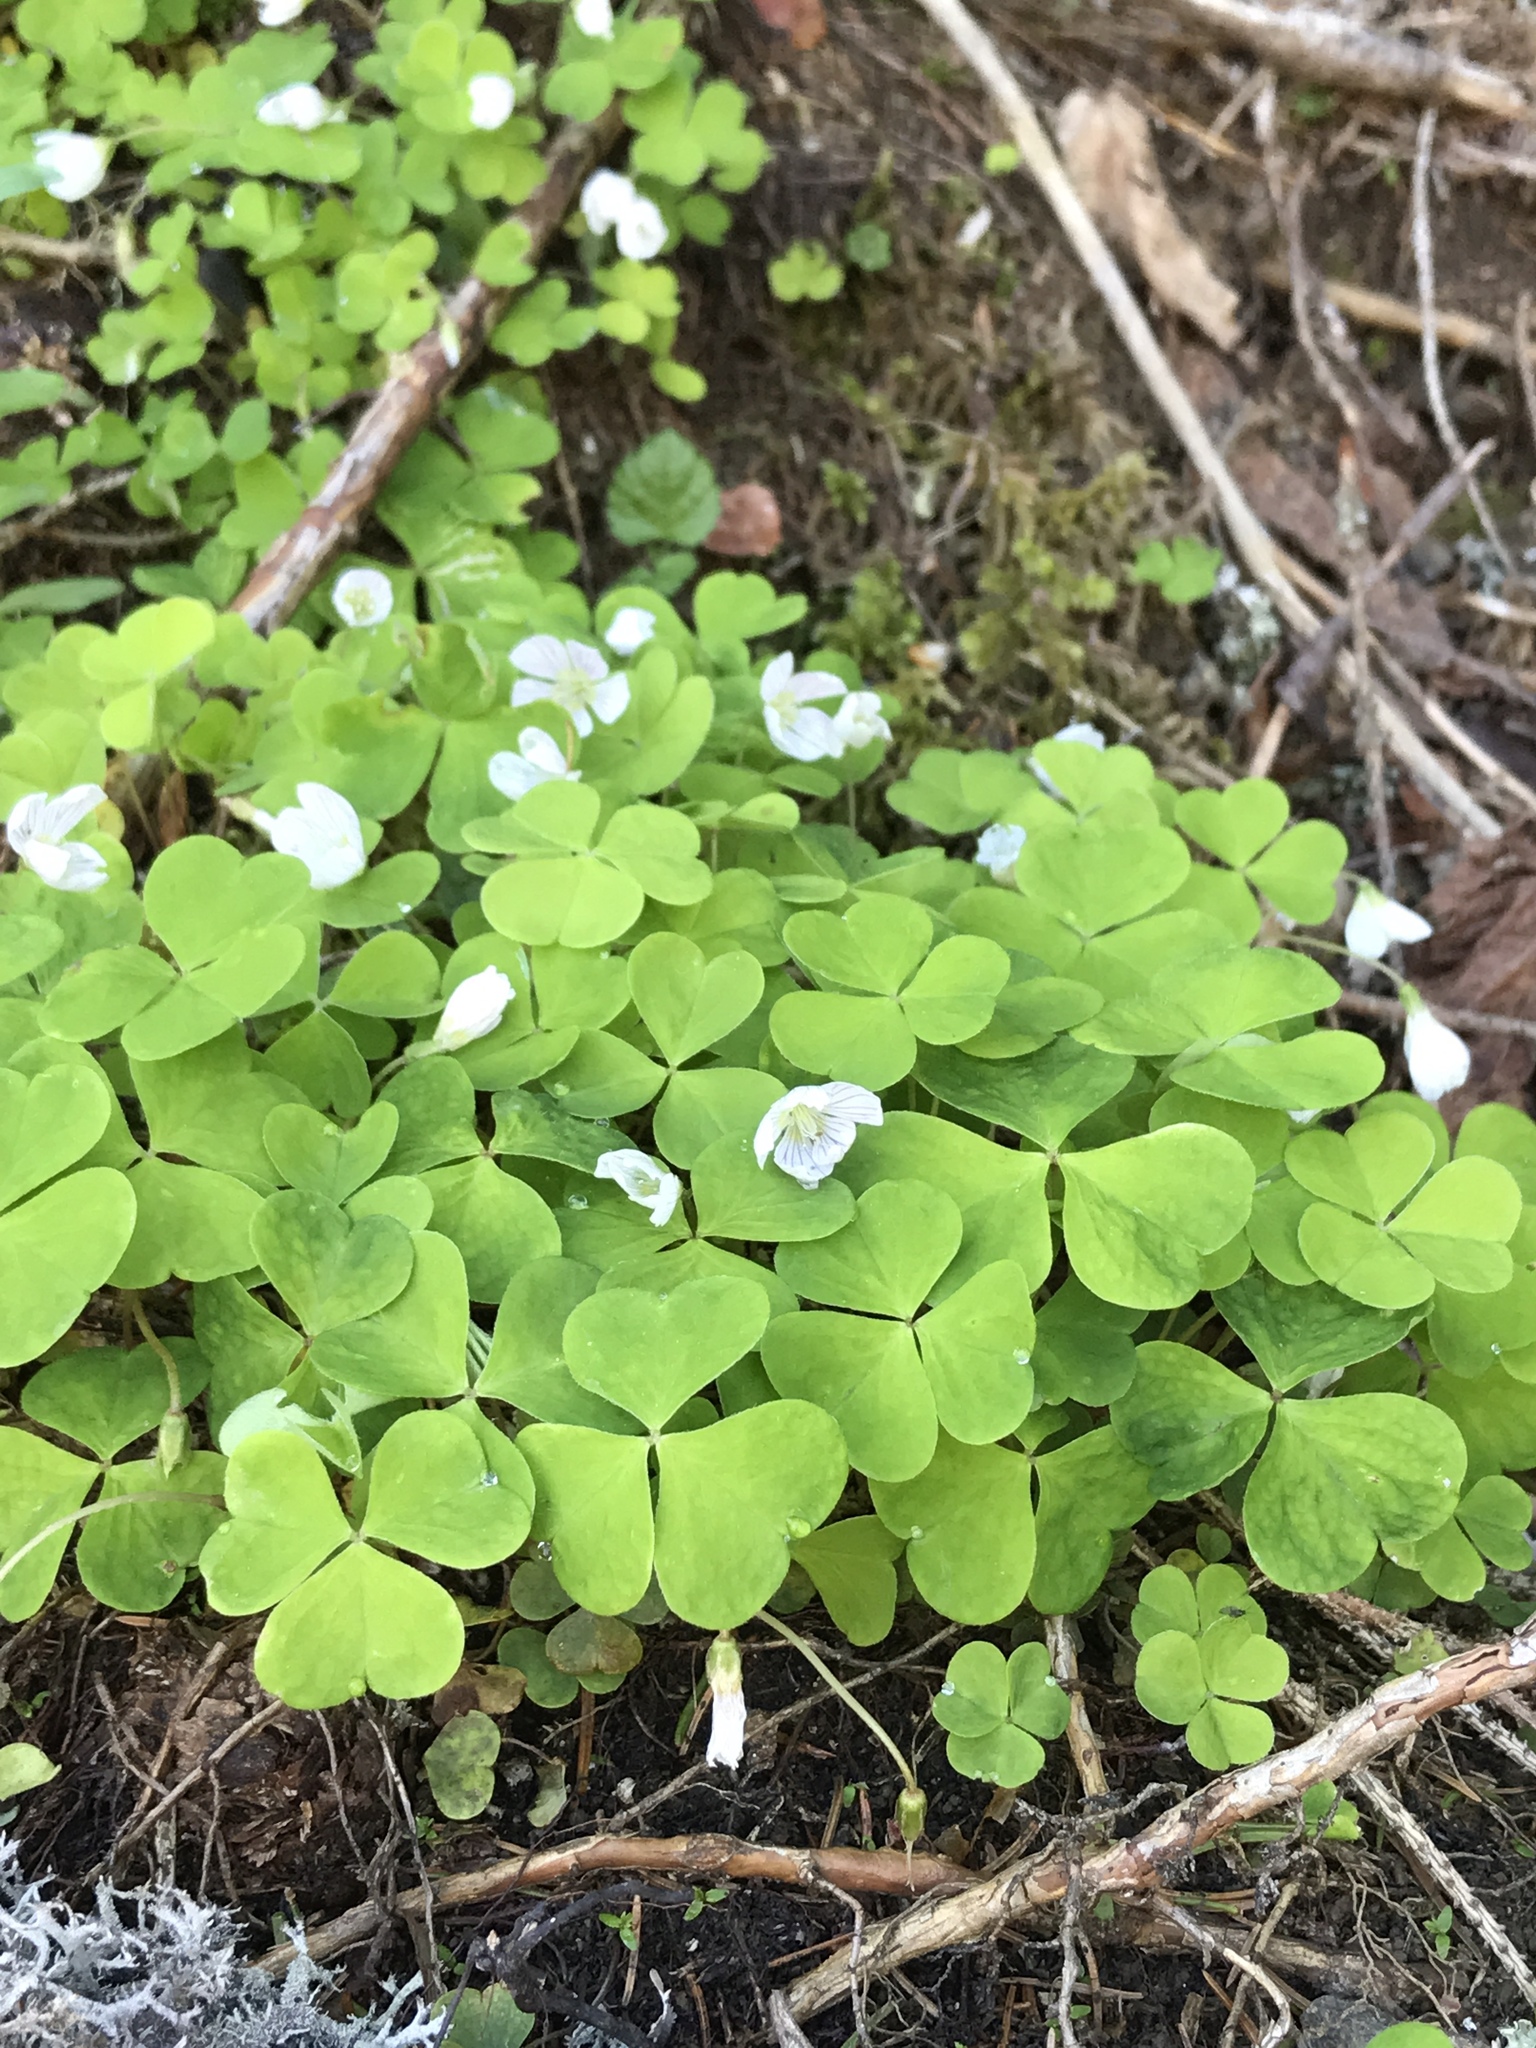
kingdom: Plantae
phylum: Tracheophyta
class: Magnoliopsida
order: Oxalidales
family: Oxalidaceae
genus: Oxalis
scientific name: Oxalis acetosella
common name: Wood-sorrel
